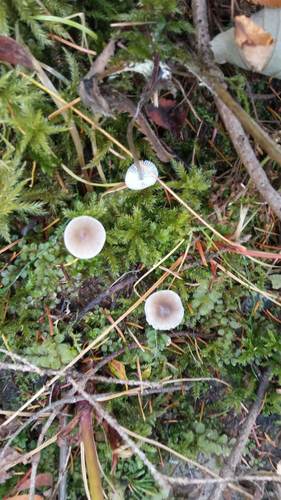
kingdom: Fungi
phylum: Basidiomycota
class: Agaricomycetes
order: Agaricales
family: Mycenaceae
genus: Mycena
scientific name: Mycena
